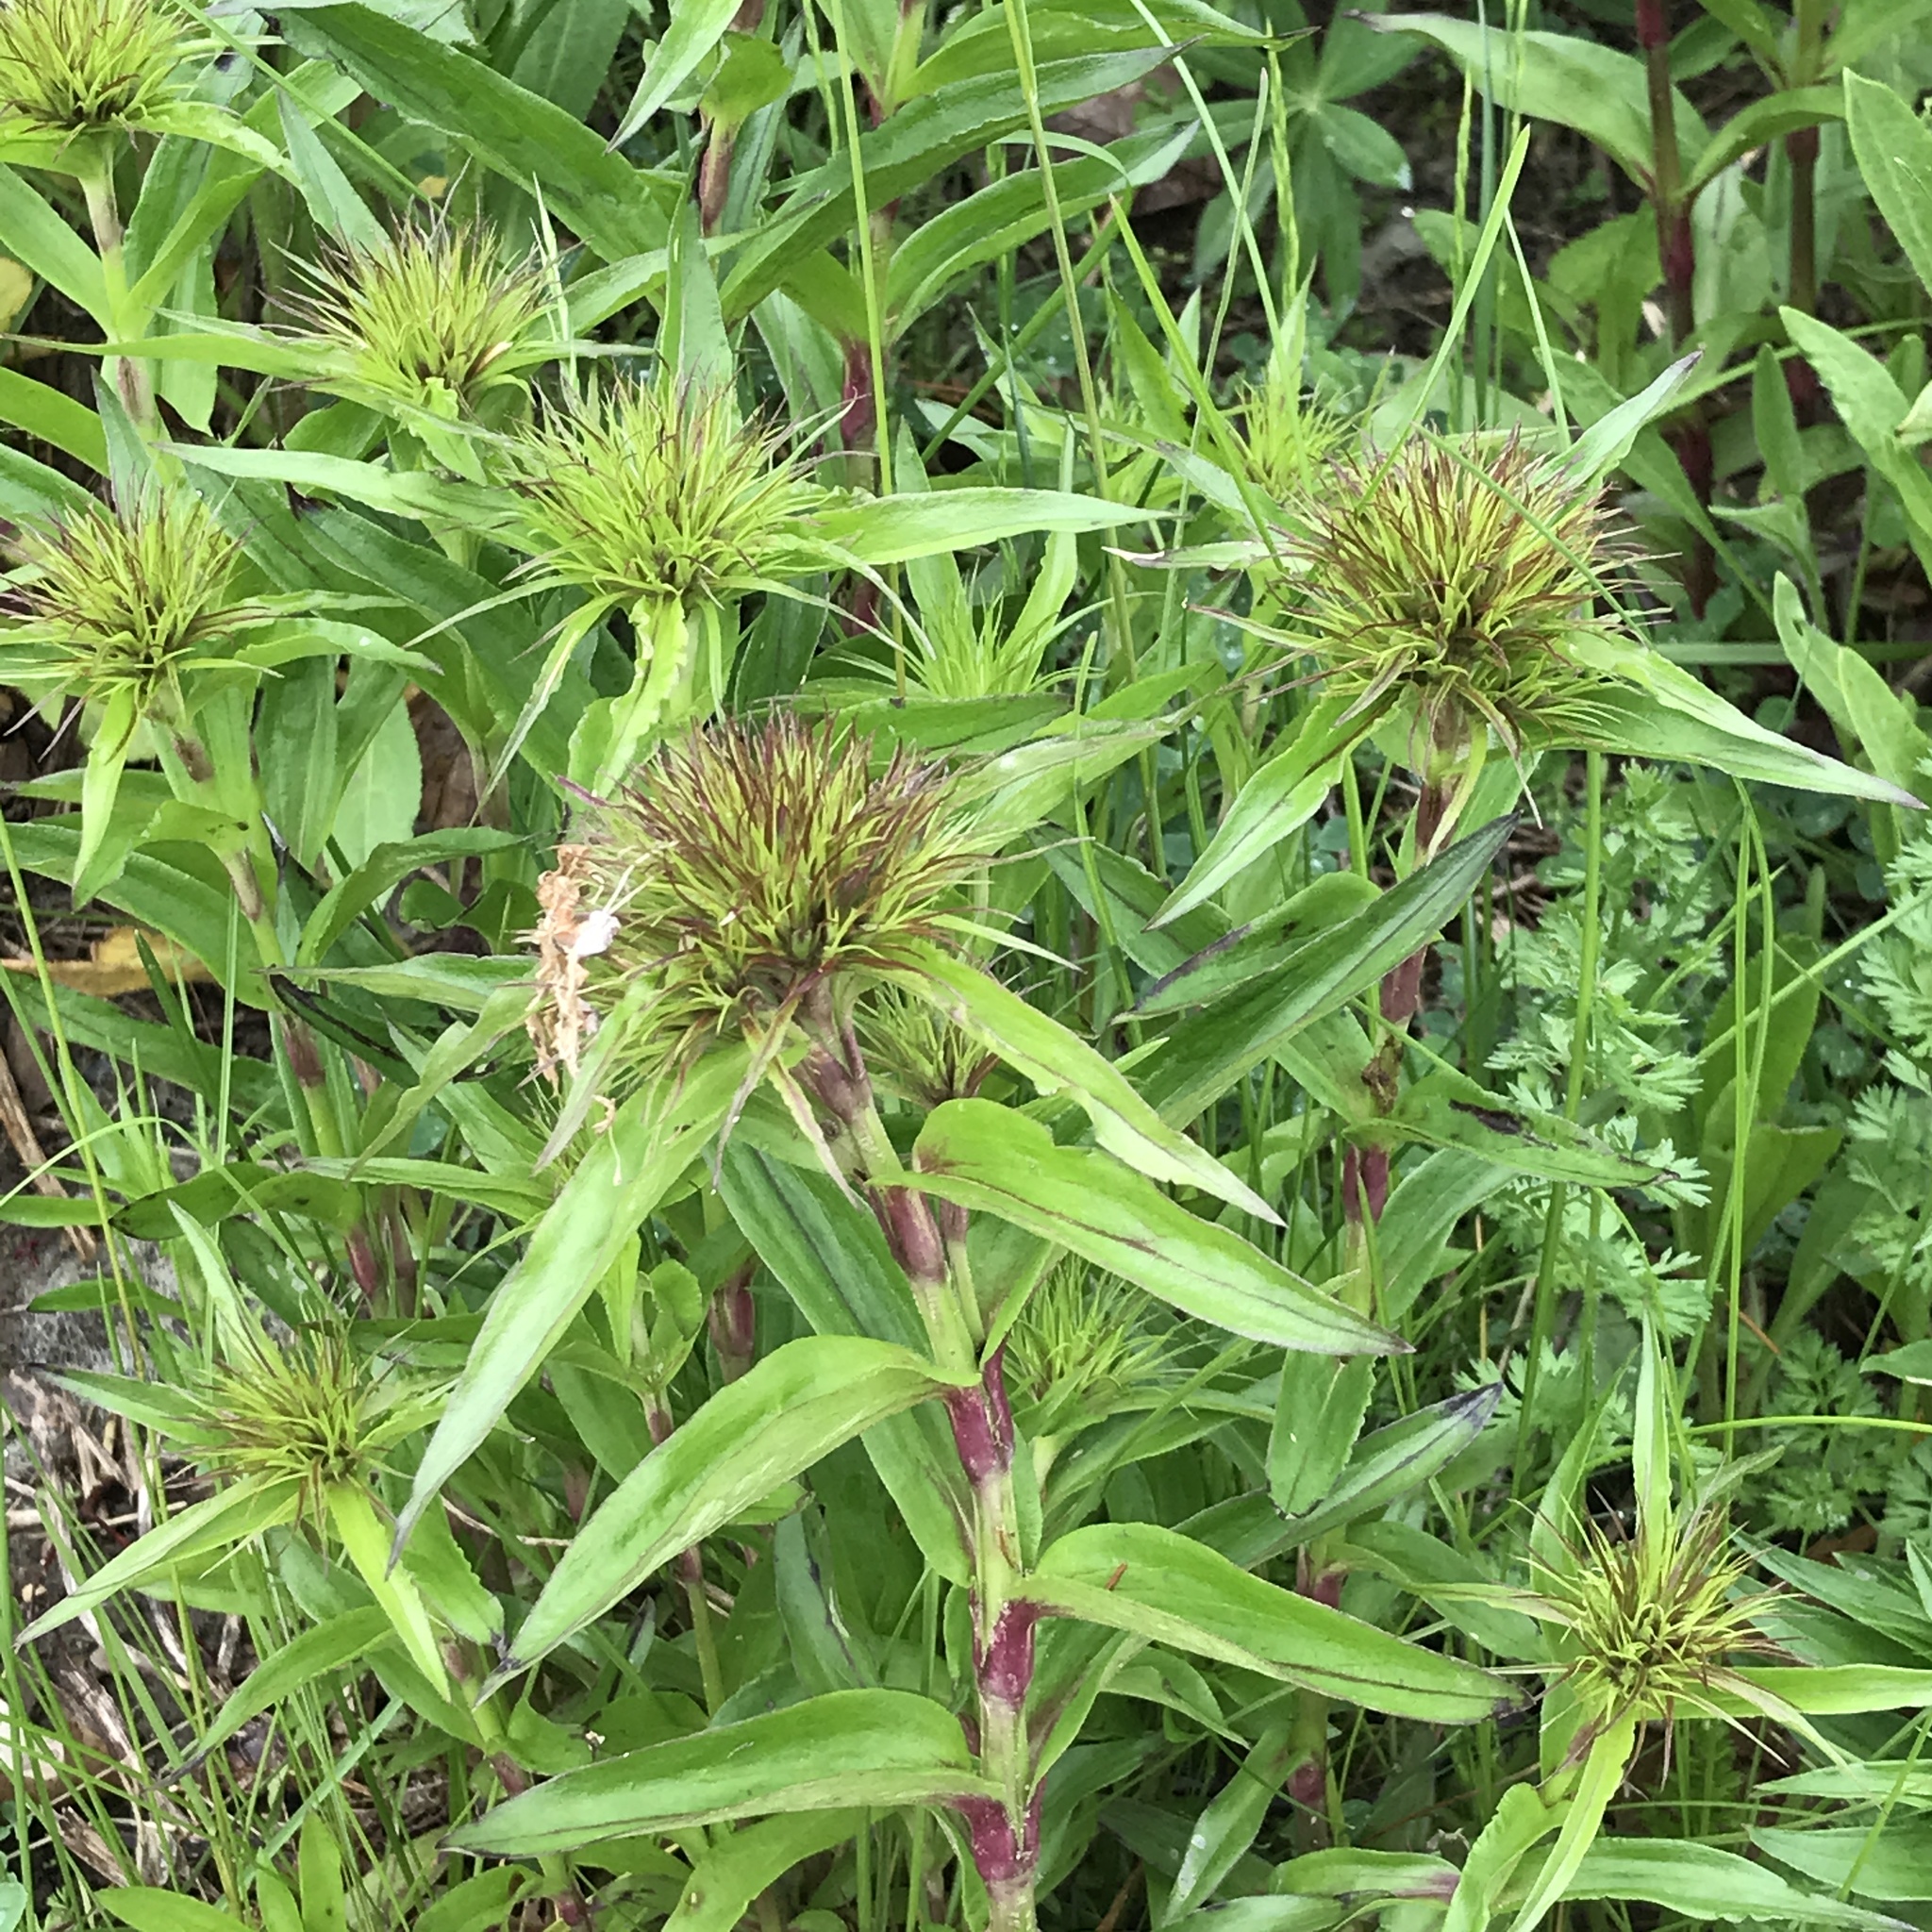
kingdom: Plantae
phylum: Tracheophyta
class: Magnoliopsida
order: Caryophyllales
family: Caryophyllaceae
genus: Dianthus
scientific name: Dianthus barbatus
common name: Sweet-william
